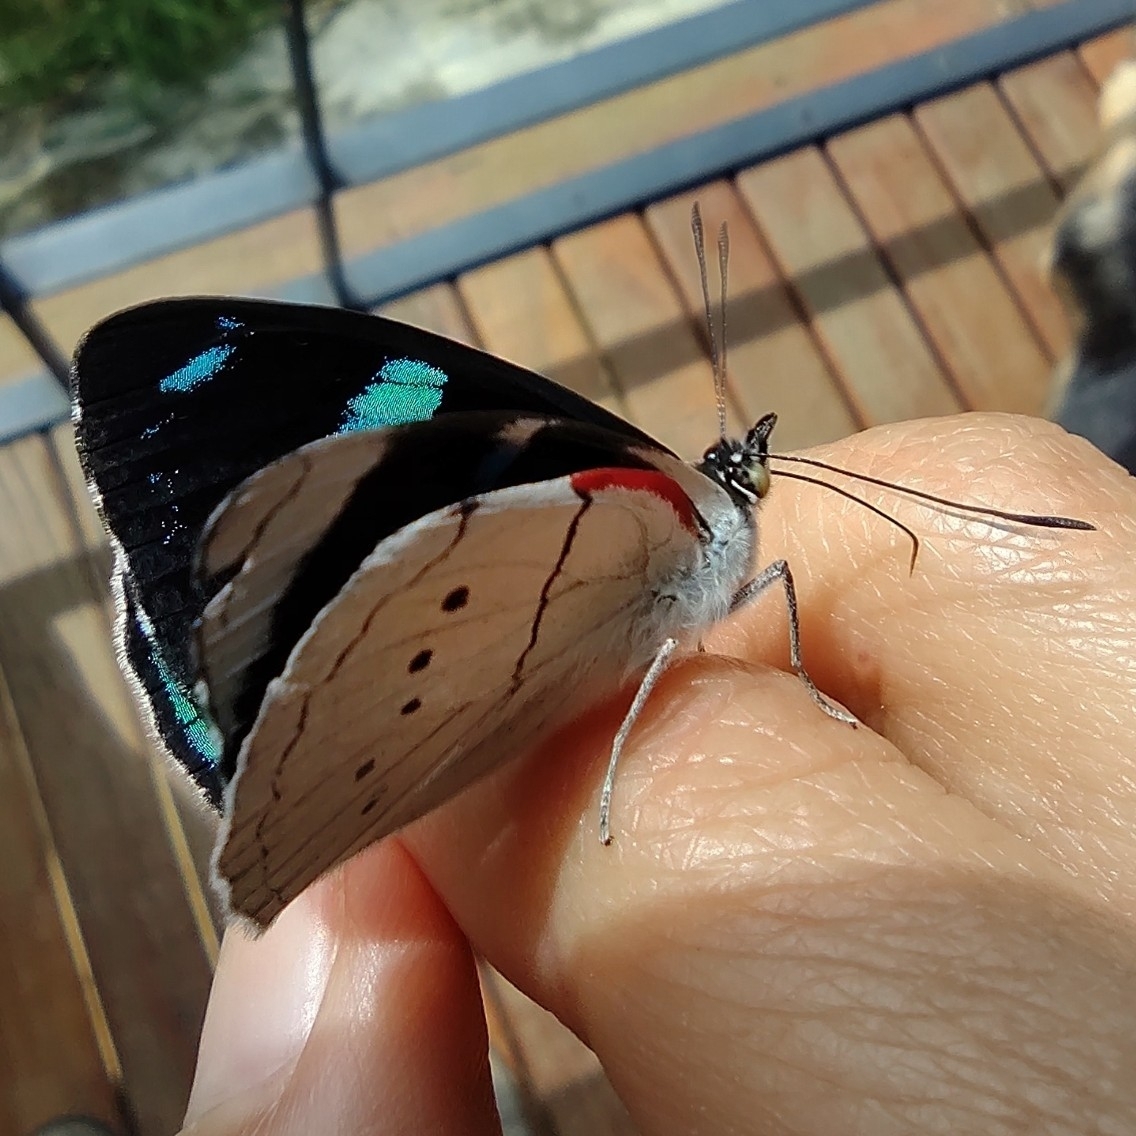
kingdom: Animalia
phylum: Arthropoda
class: Insecta
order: Lepidoptera
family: Nymphalidae
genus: Perisama
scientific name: Perisama bonplandii
